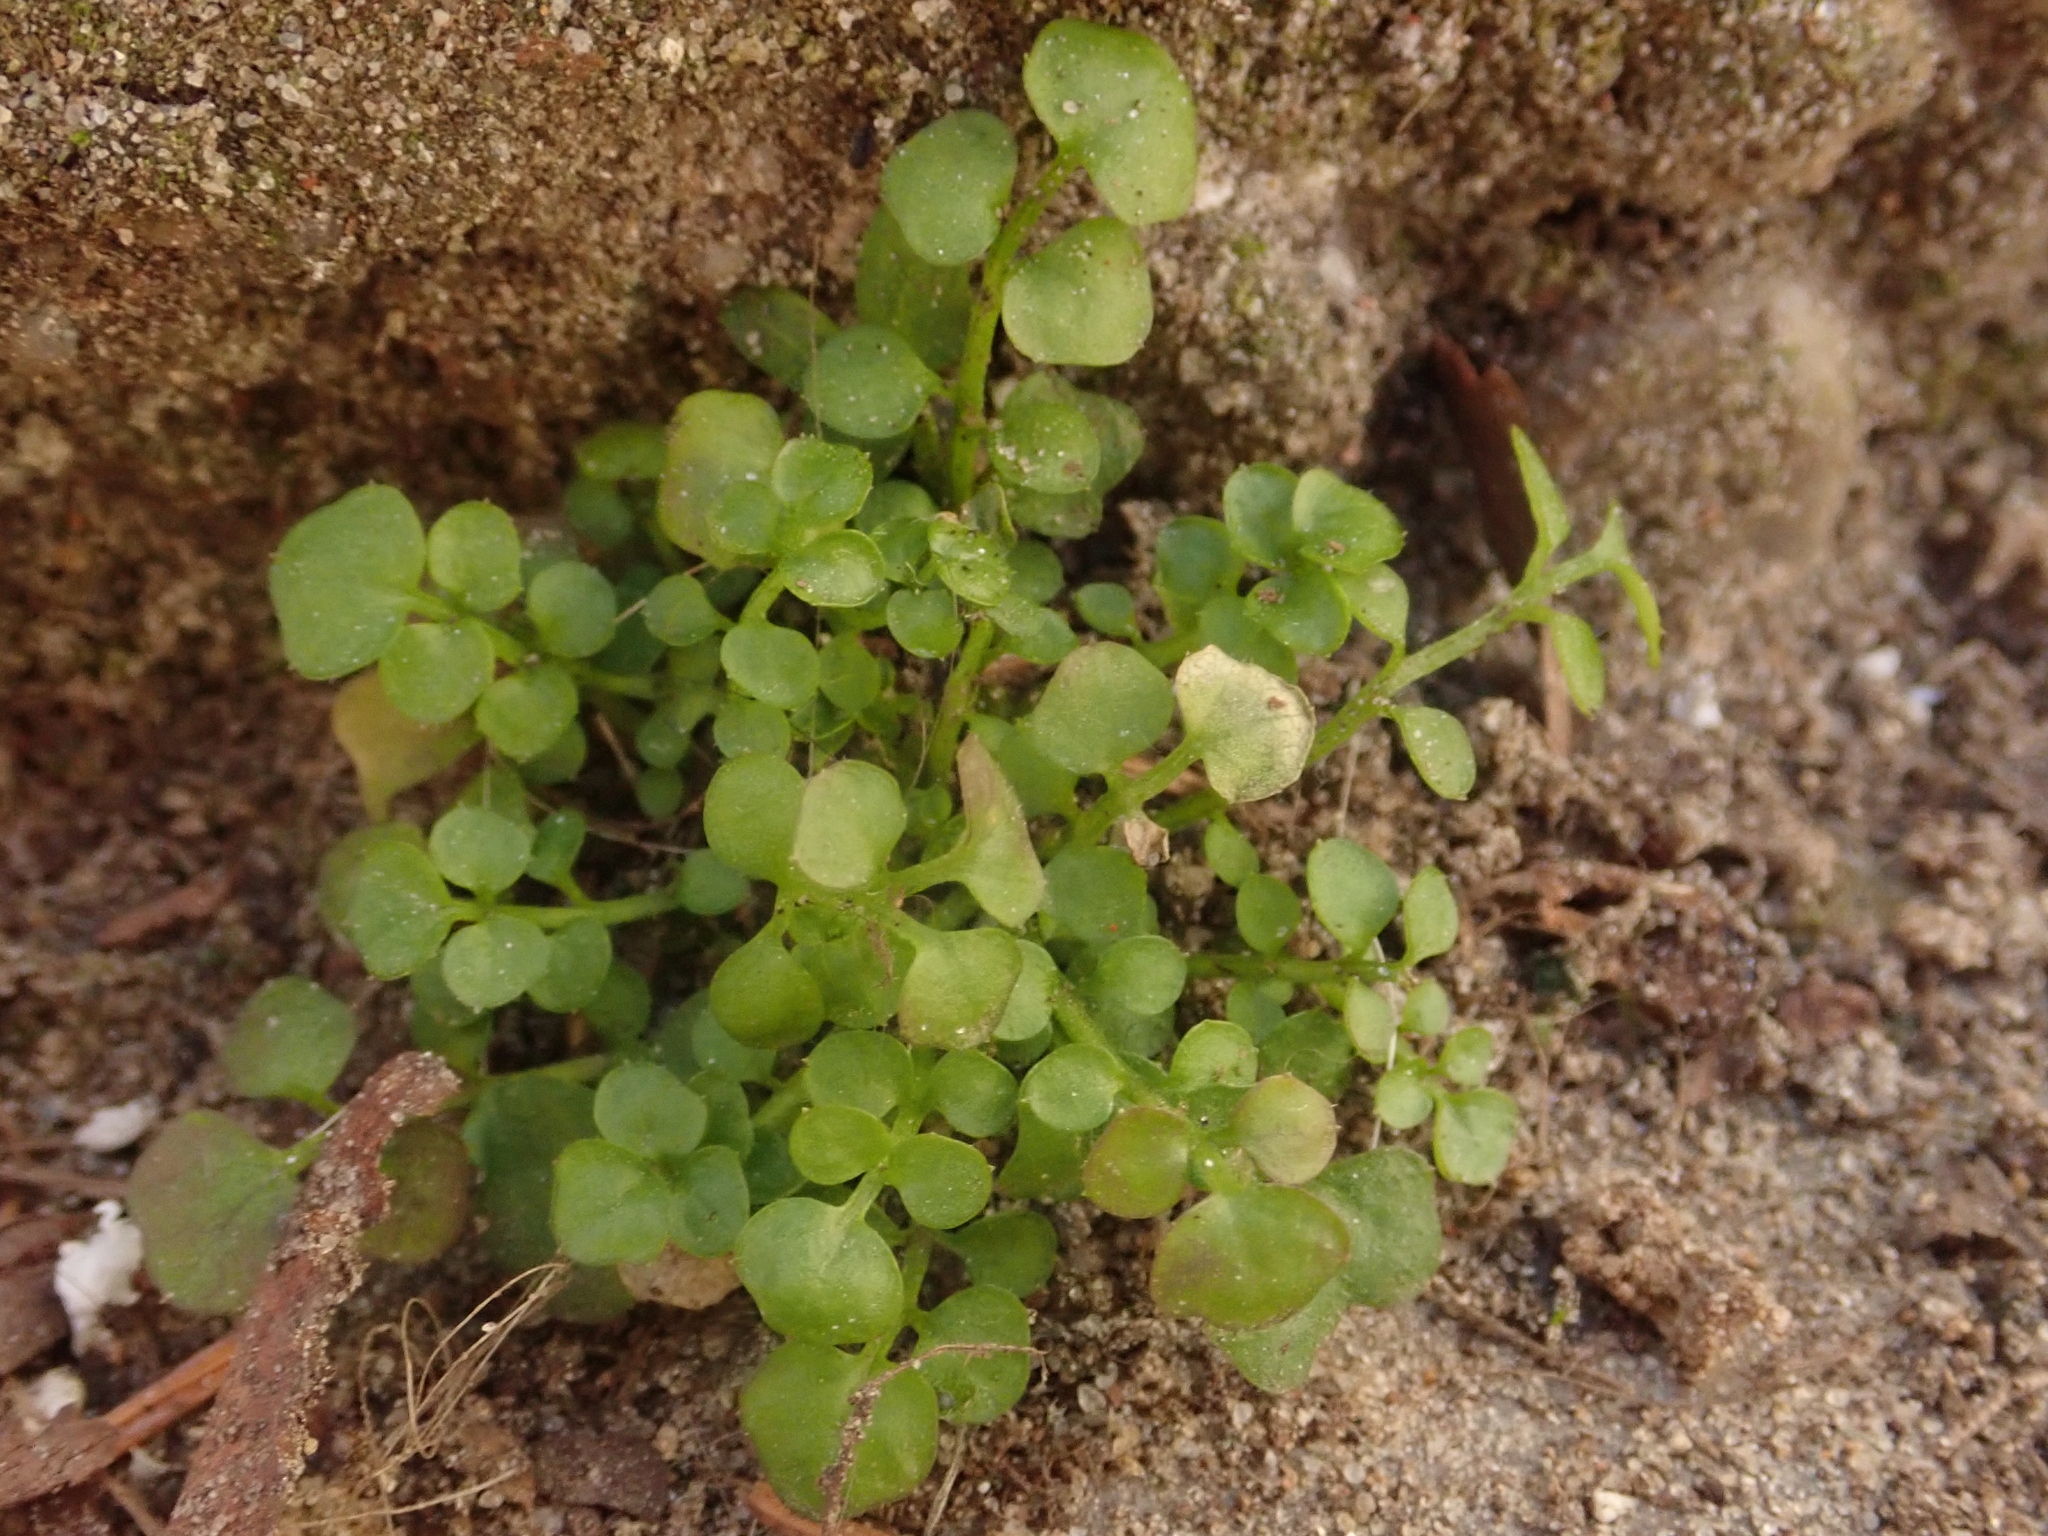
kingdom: Plantae
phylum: Tracheophyta
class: Magnoliopsida
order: Brassicales
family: Brassicaceae
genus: Cardamine
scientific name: Cardamine hirsuta
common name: Hairy bittercress
